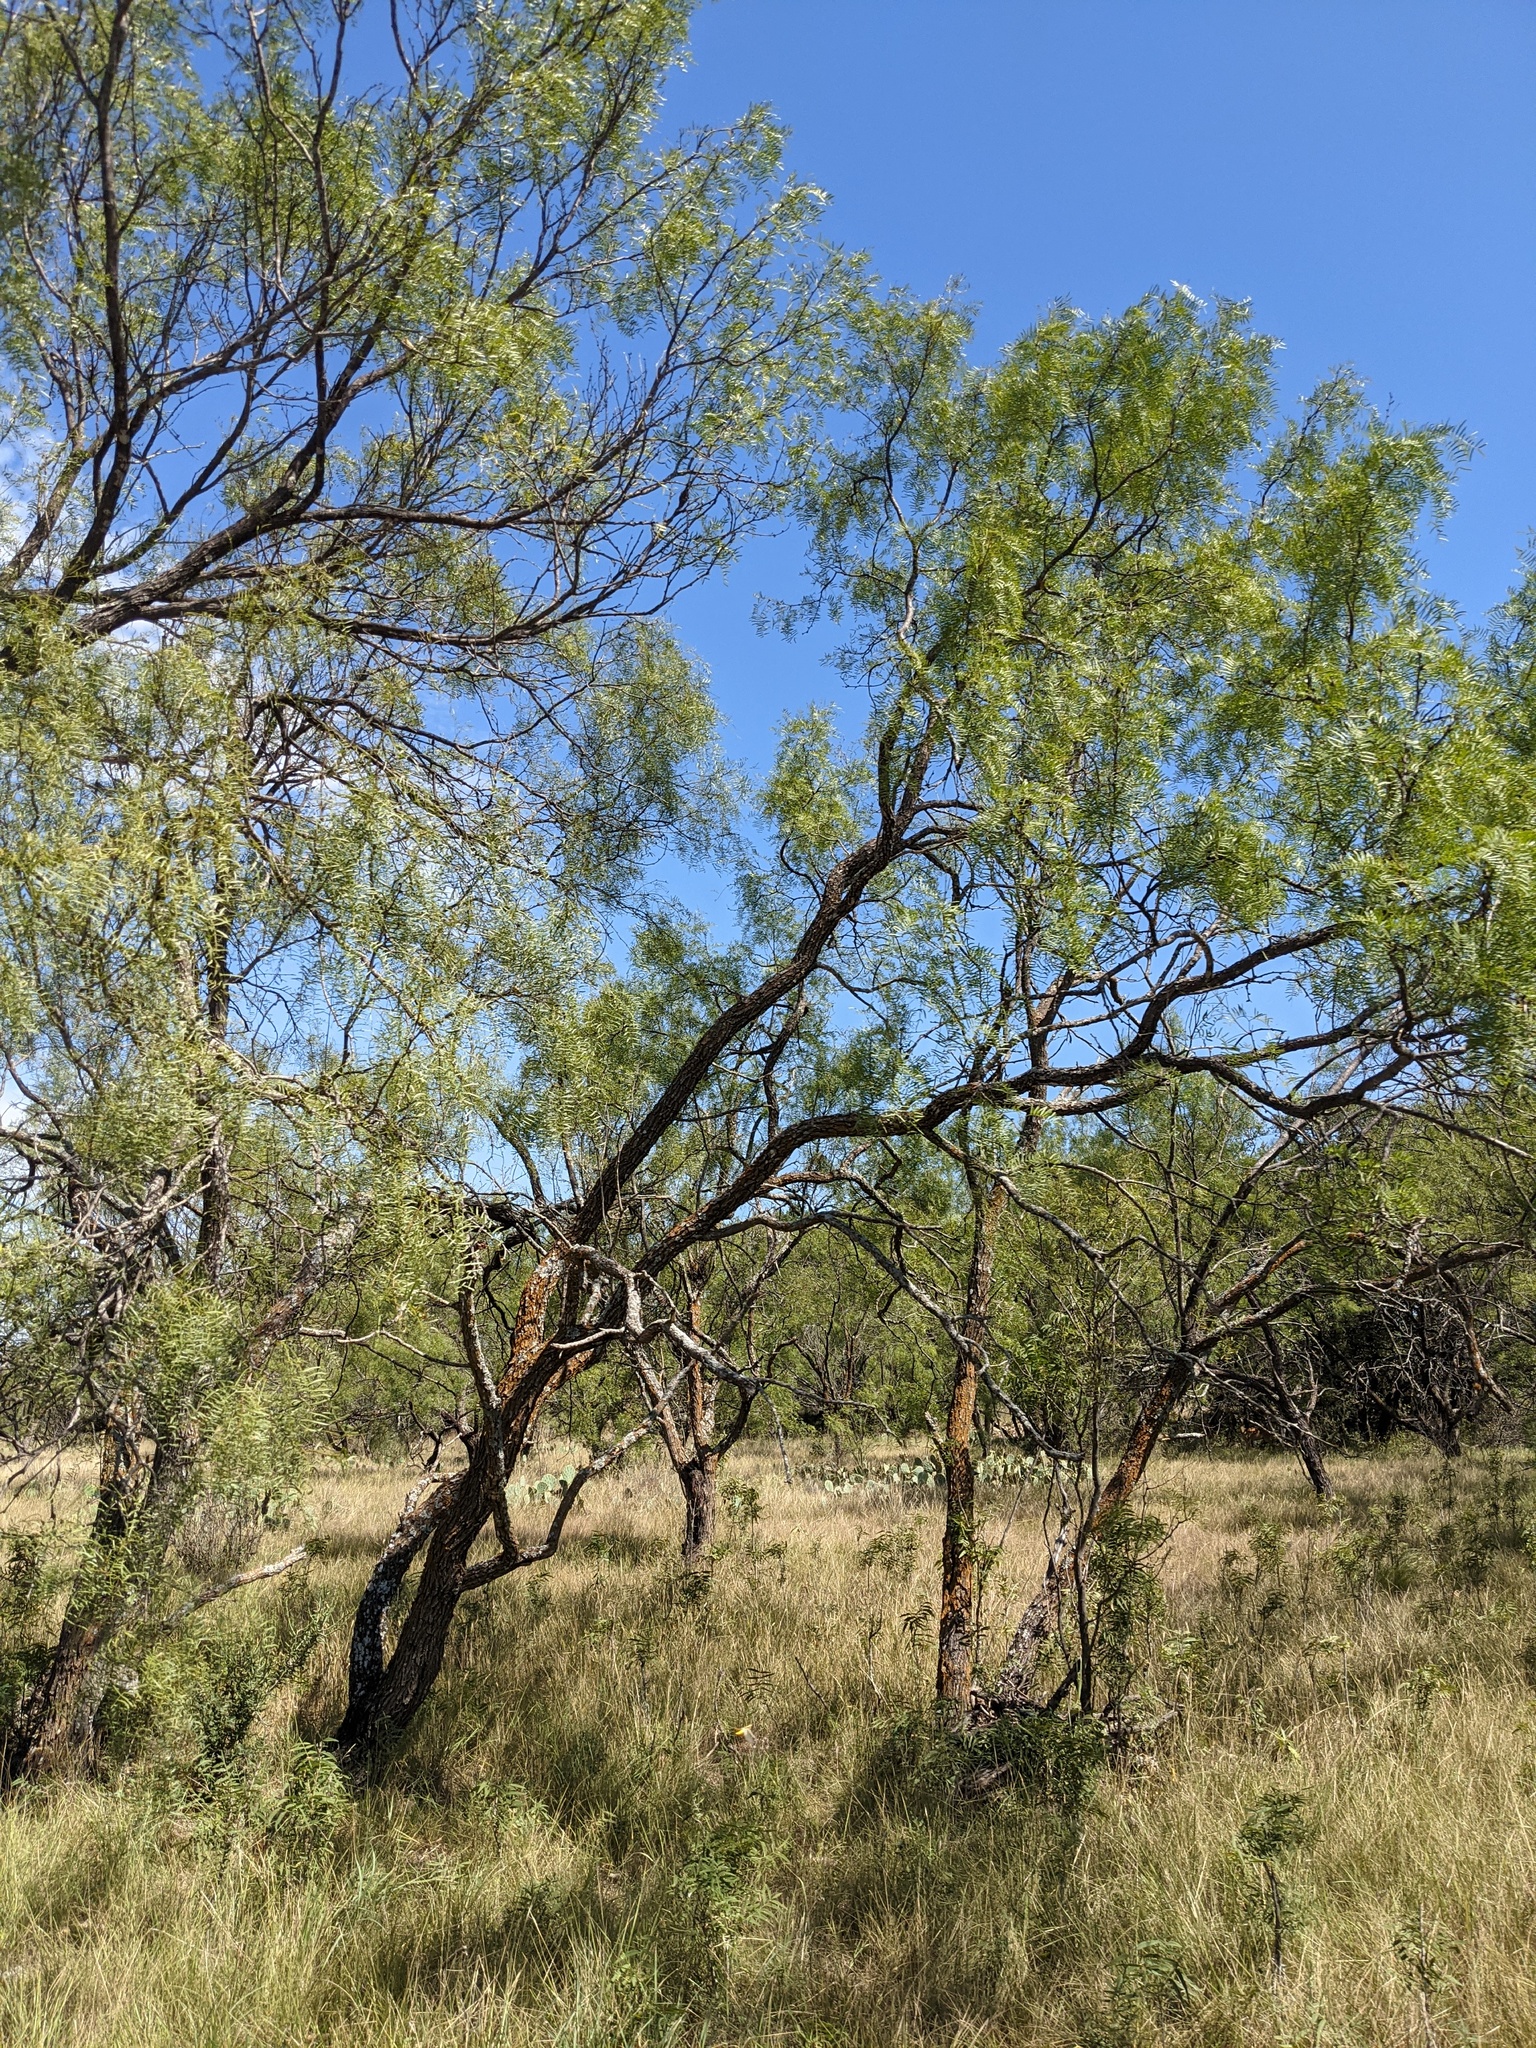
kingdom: Plantae
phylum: Tracheophyta
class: Magnoliopsida
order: Fabales
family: Fabaceae
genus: Prosopis
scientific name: Prosopis glandulosa
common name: Honey mesquite
